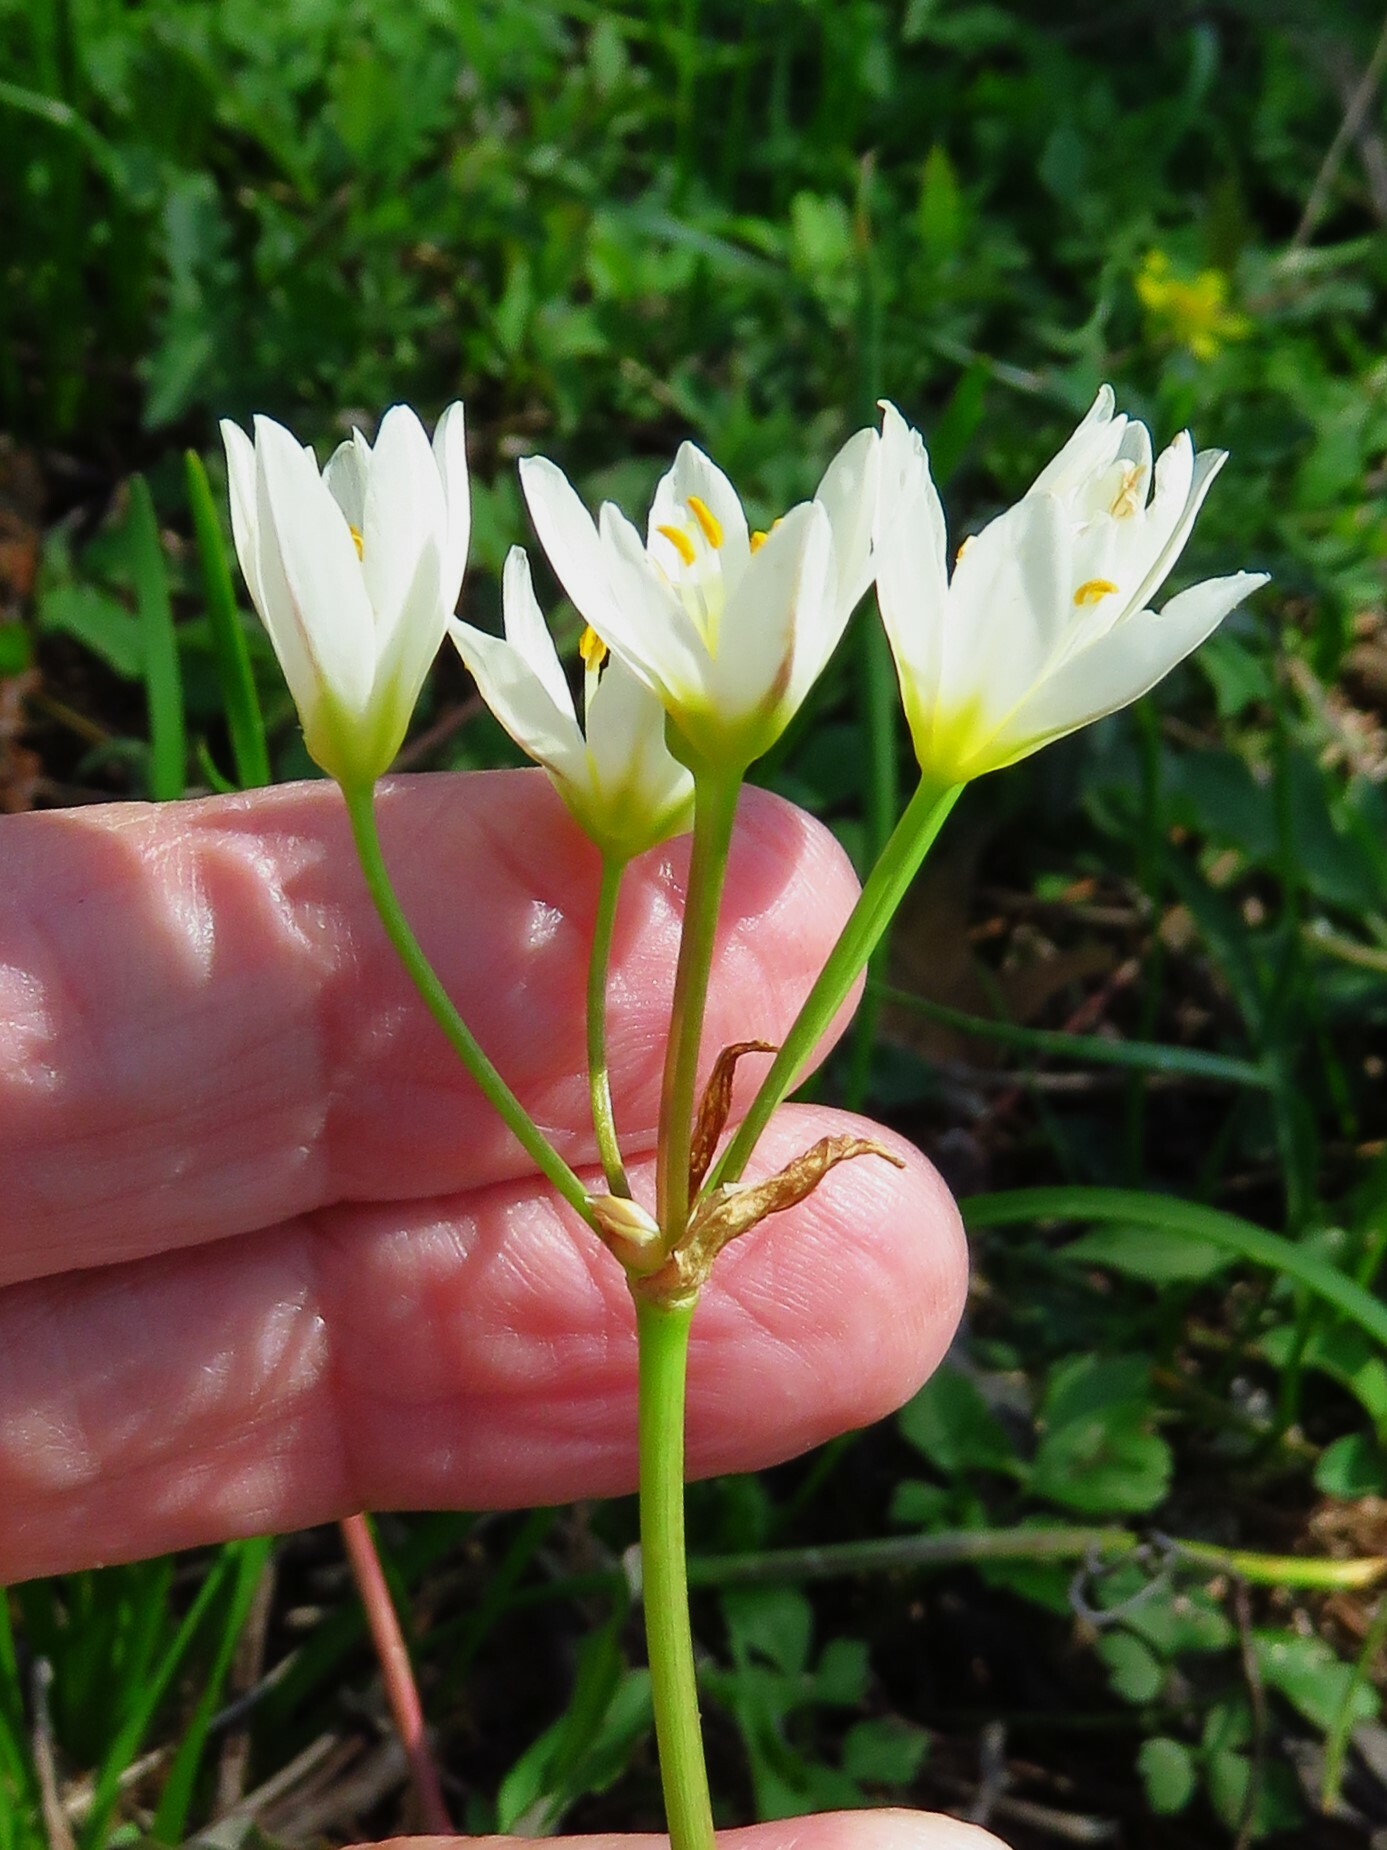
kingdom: Plantae
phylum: Tracheophyta
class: Liliopsida
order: Asparagales
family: Amaryllidaceae
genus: Nothoscordum
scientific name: Nothoscordum bivalve
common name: Crow-poison
